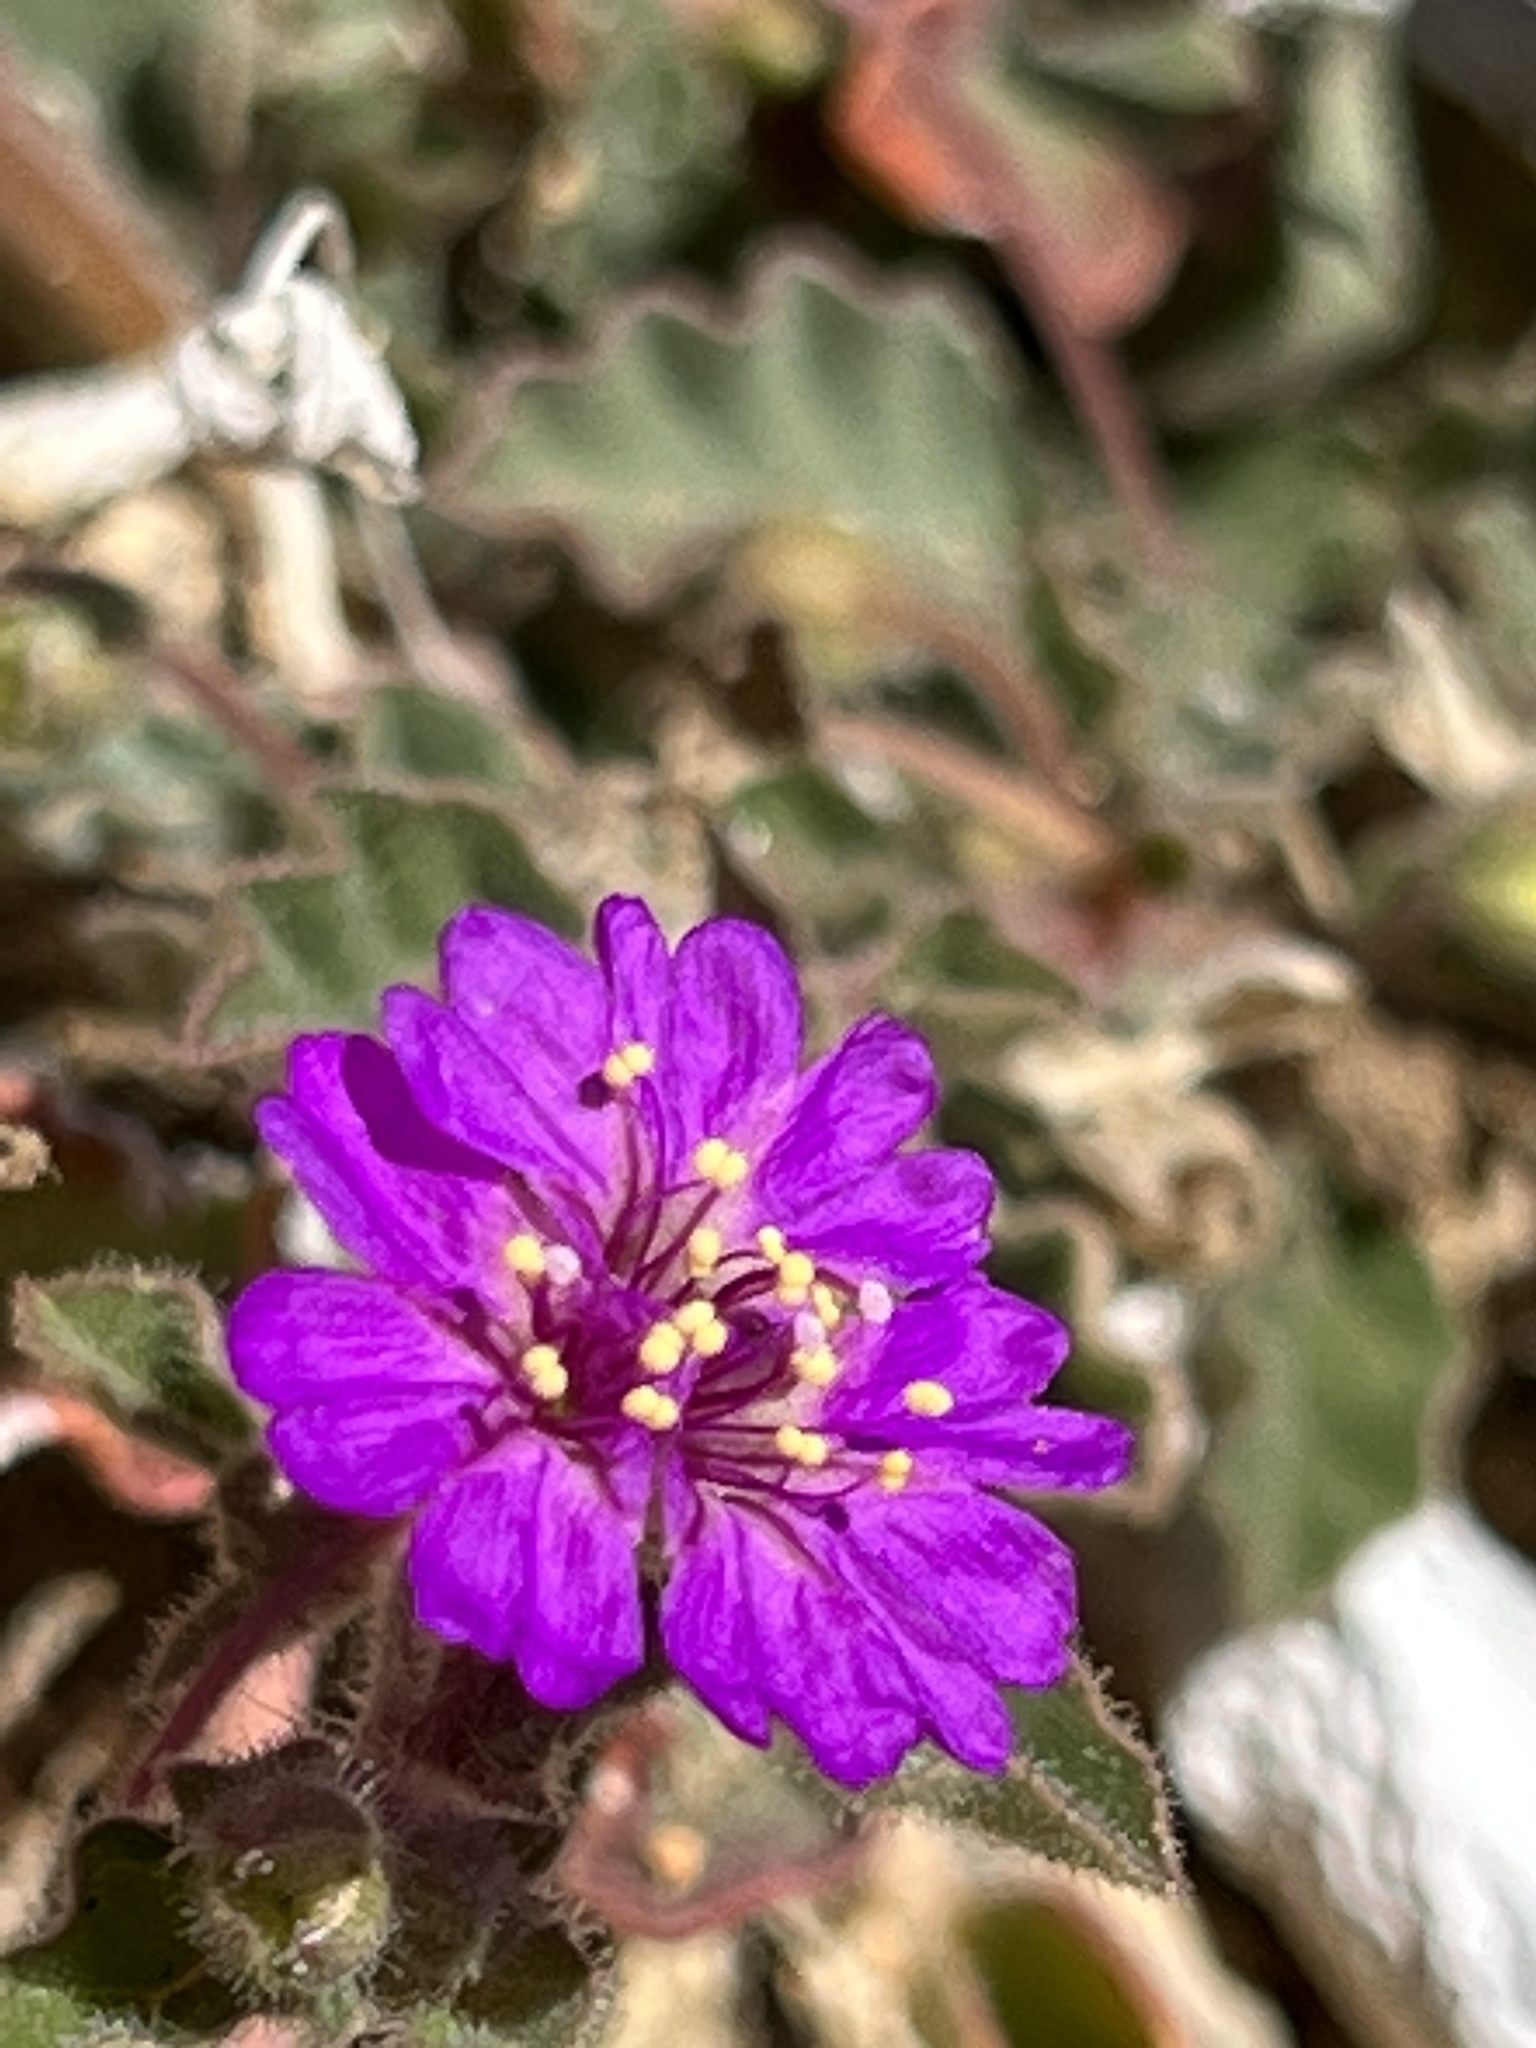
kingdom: Plantae
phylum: Tracheophyta
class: Magnoliopsida
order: Caryophyllales
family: Nyctaginaceae
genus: Allionia
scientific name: Allionia incarnata
